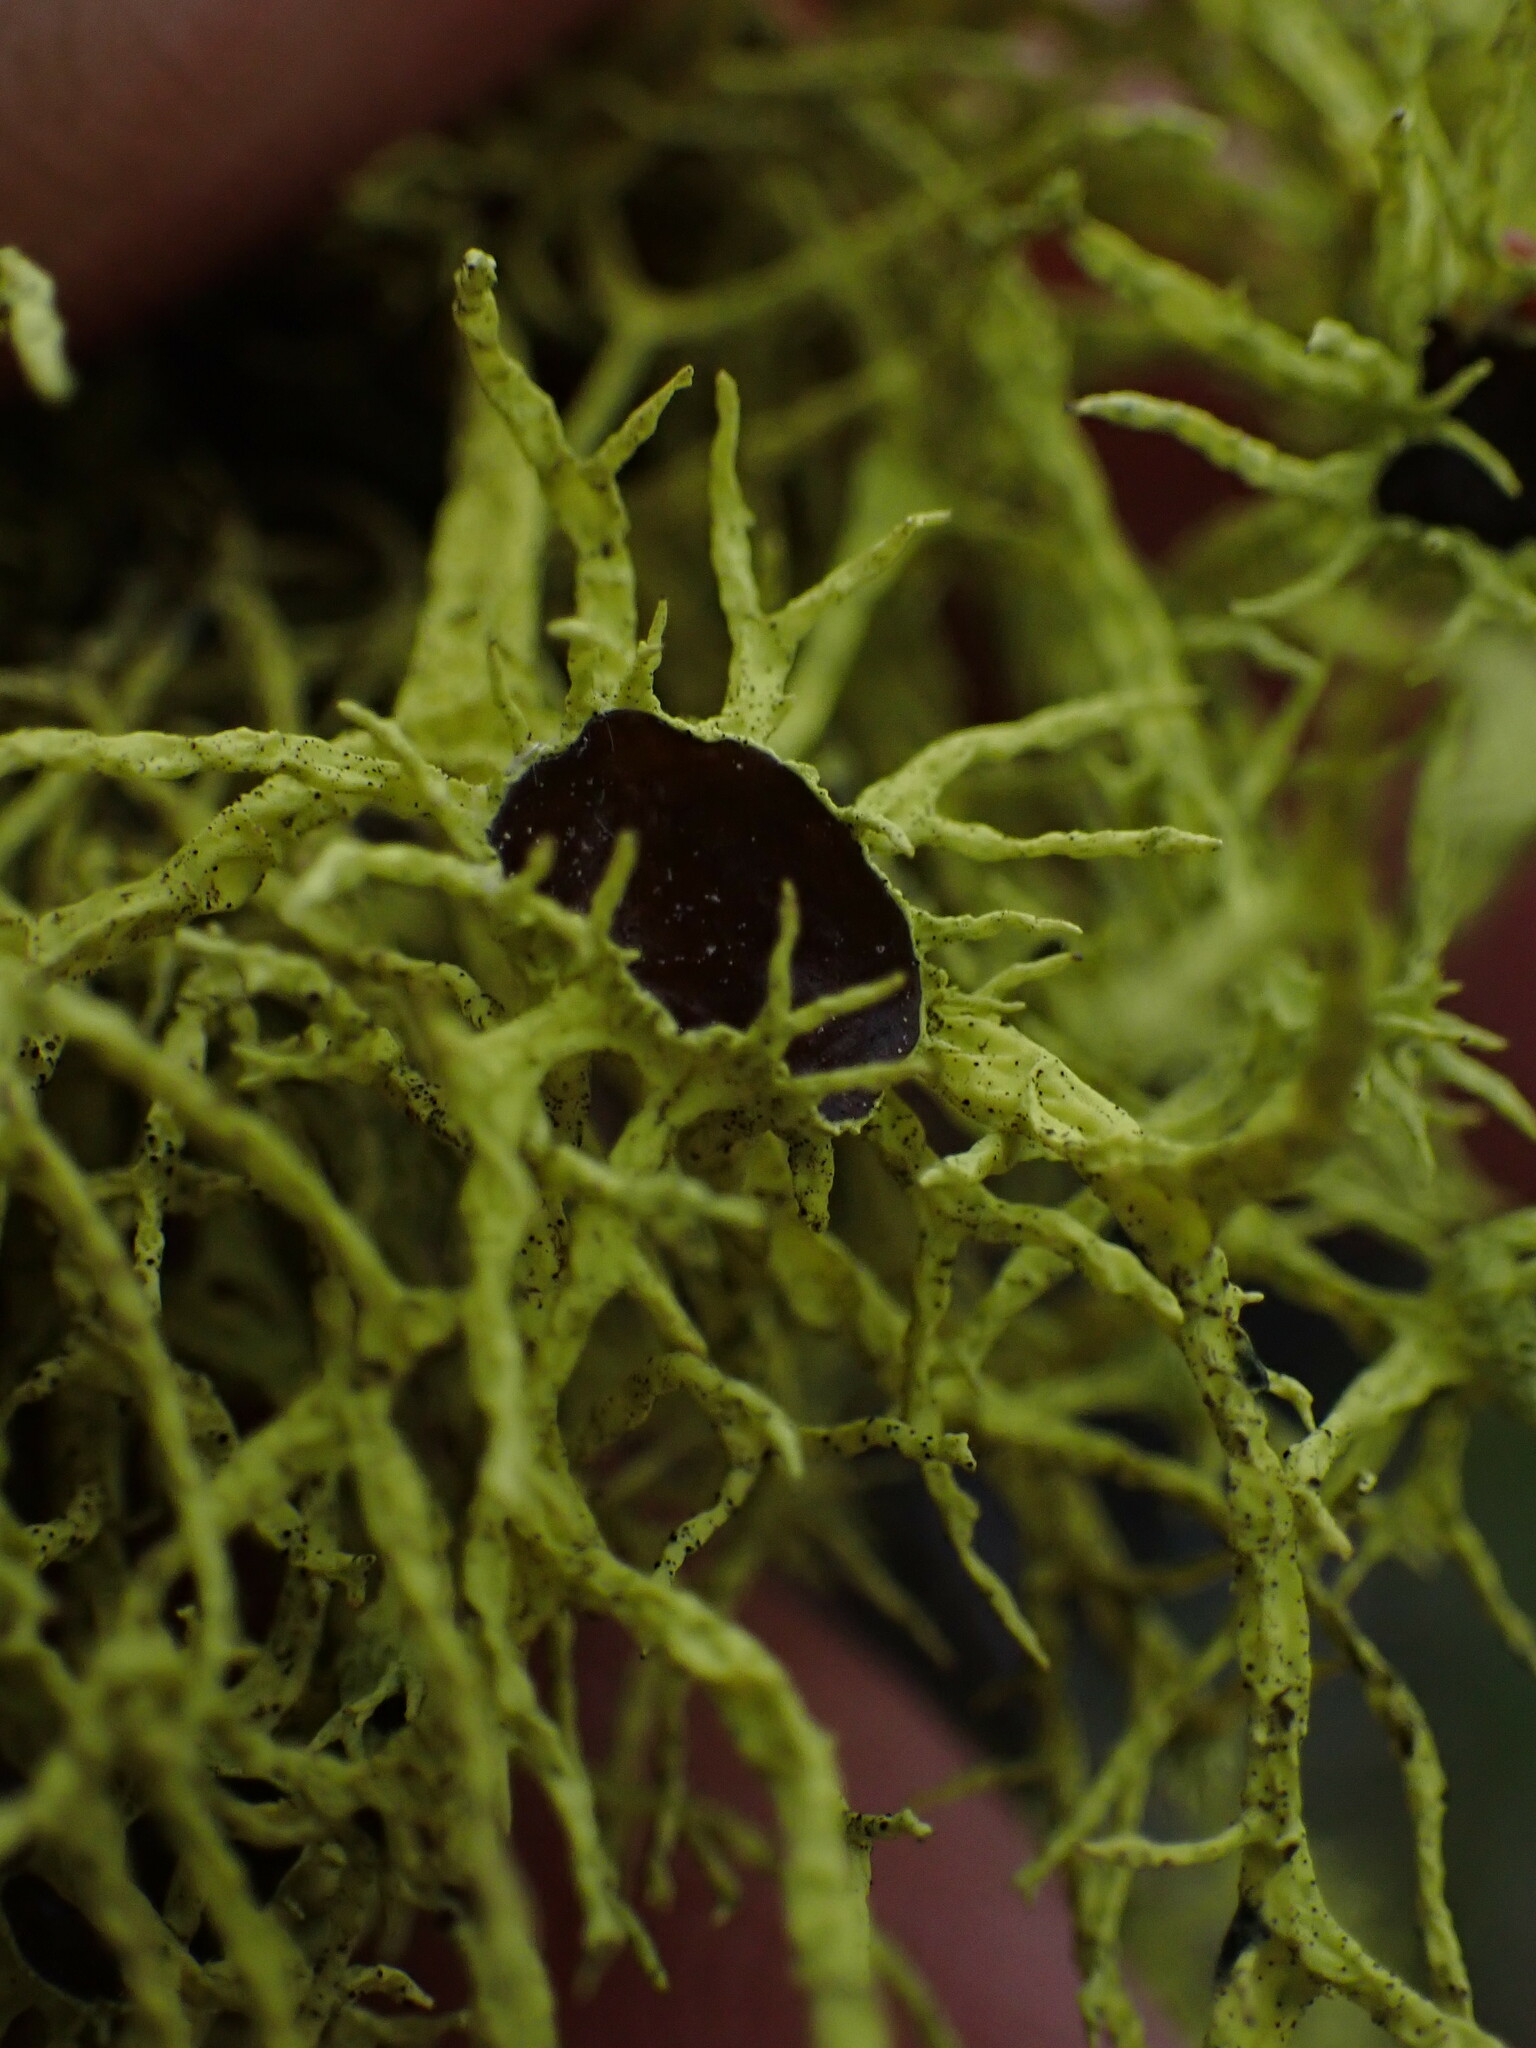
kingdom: Fungi
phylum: Ascomycota
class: Lecanoromycetes
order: Lecanorales
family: Parmeliaceae
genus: Letharia
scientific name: Letharia columbiana
